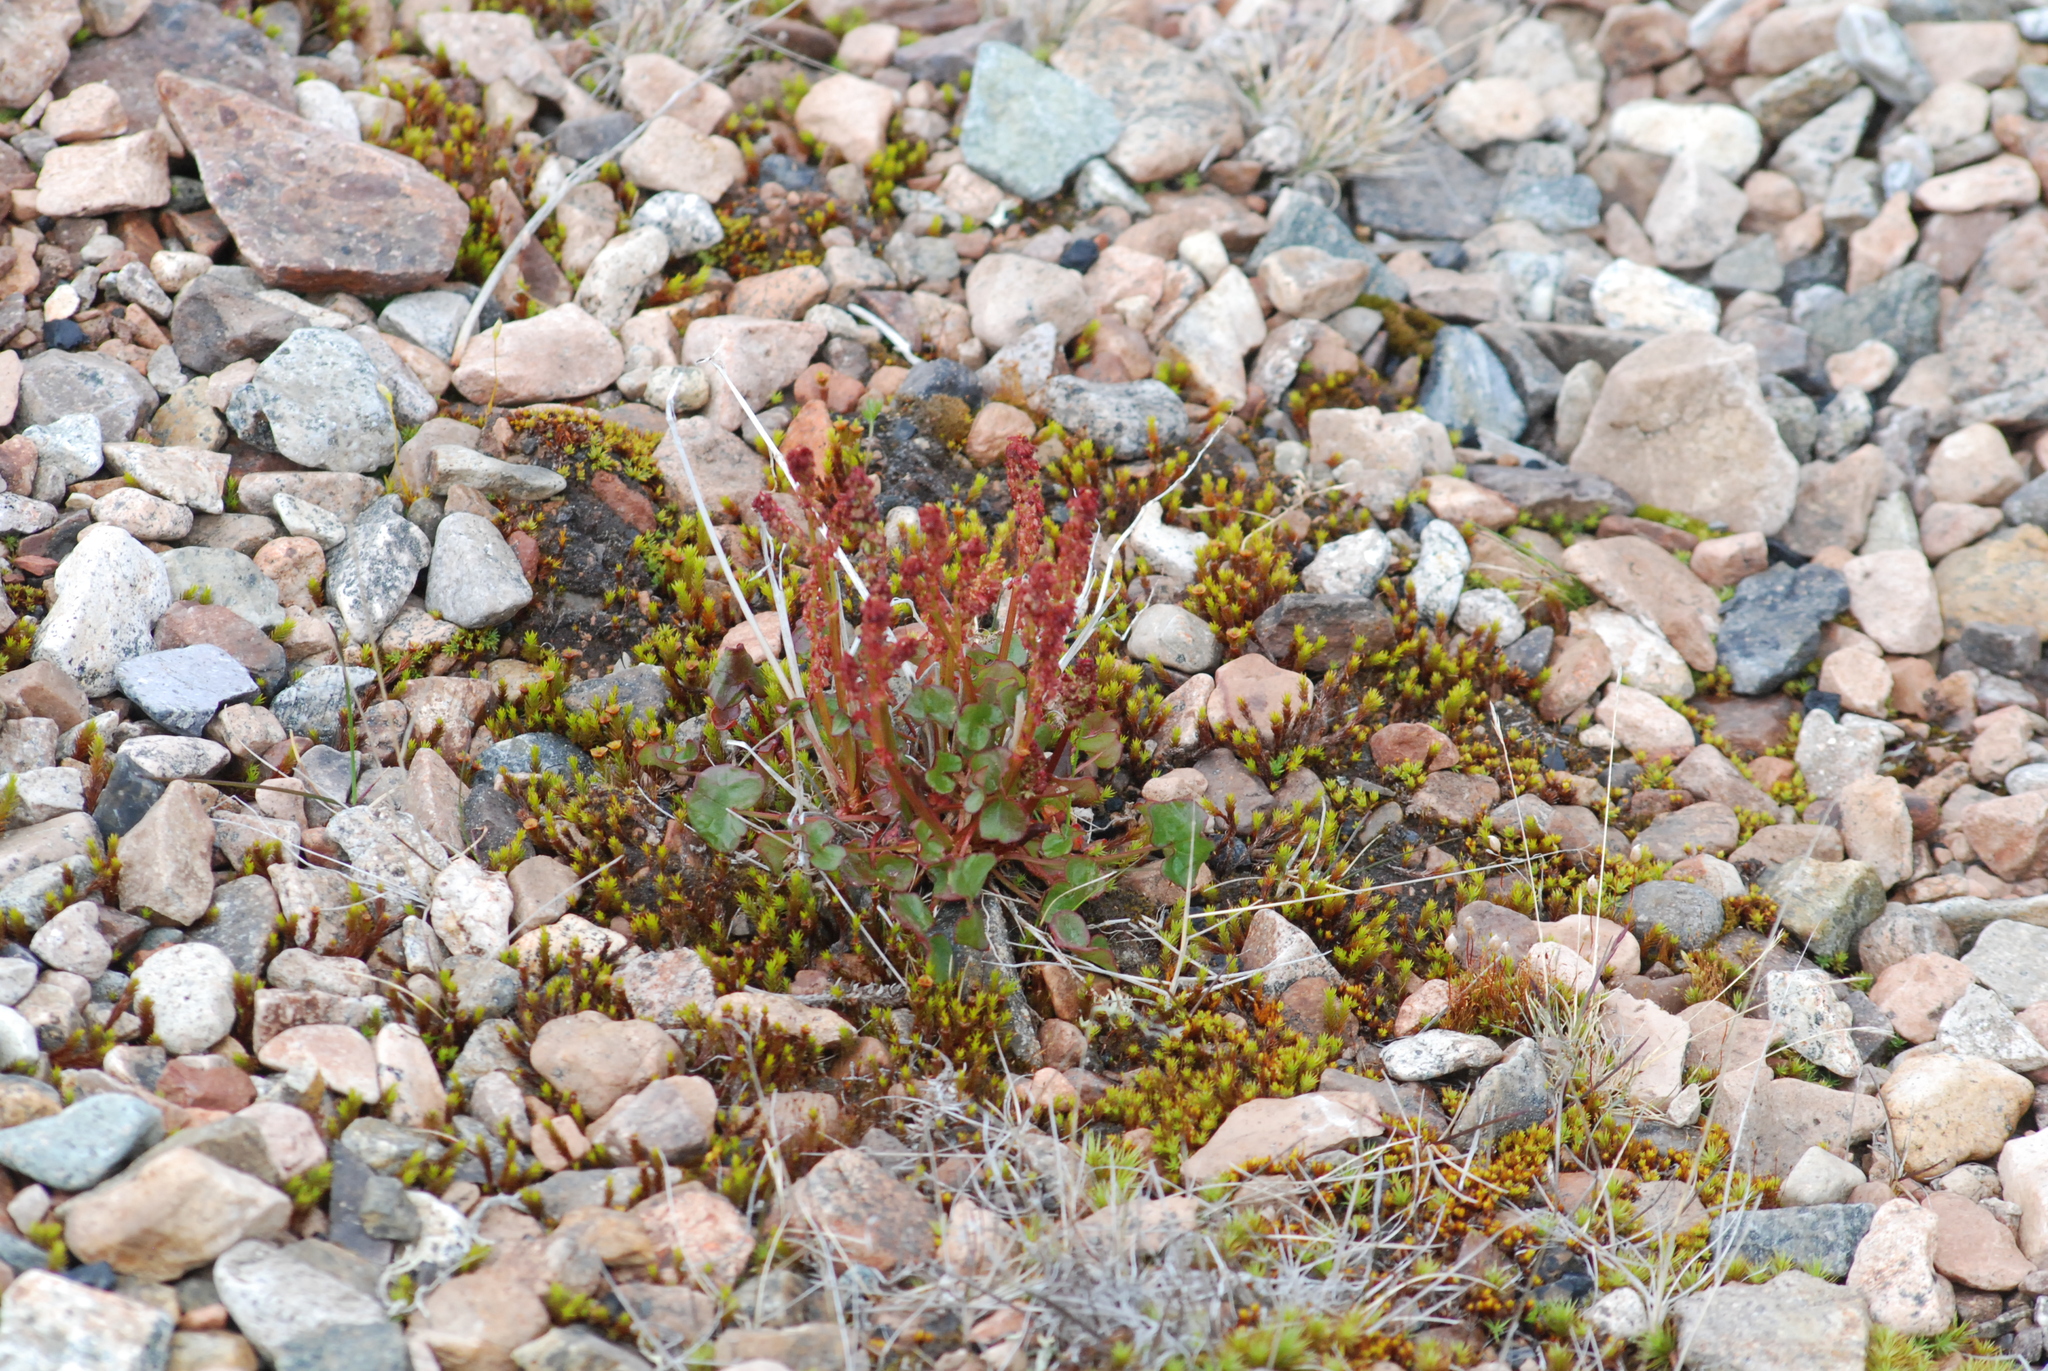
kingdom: Plantae
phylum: Tracheophyta
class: Magnoliopsida
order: Caryophyllales
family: Polygonaceae
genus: Oxyria
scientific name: Oxyria digyna
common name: Alpine mountain-sorrel
